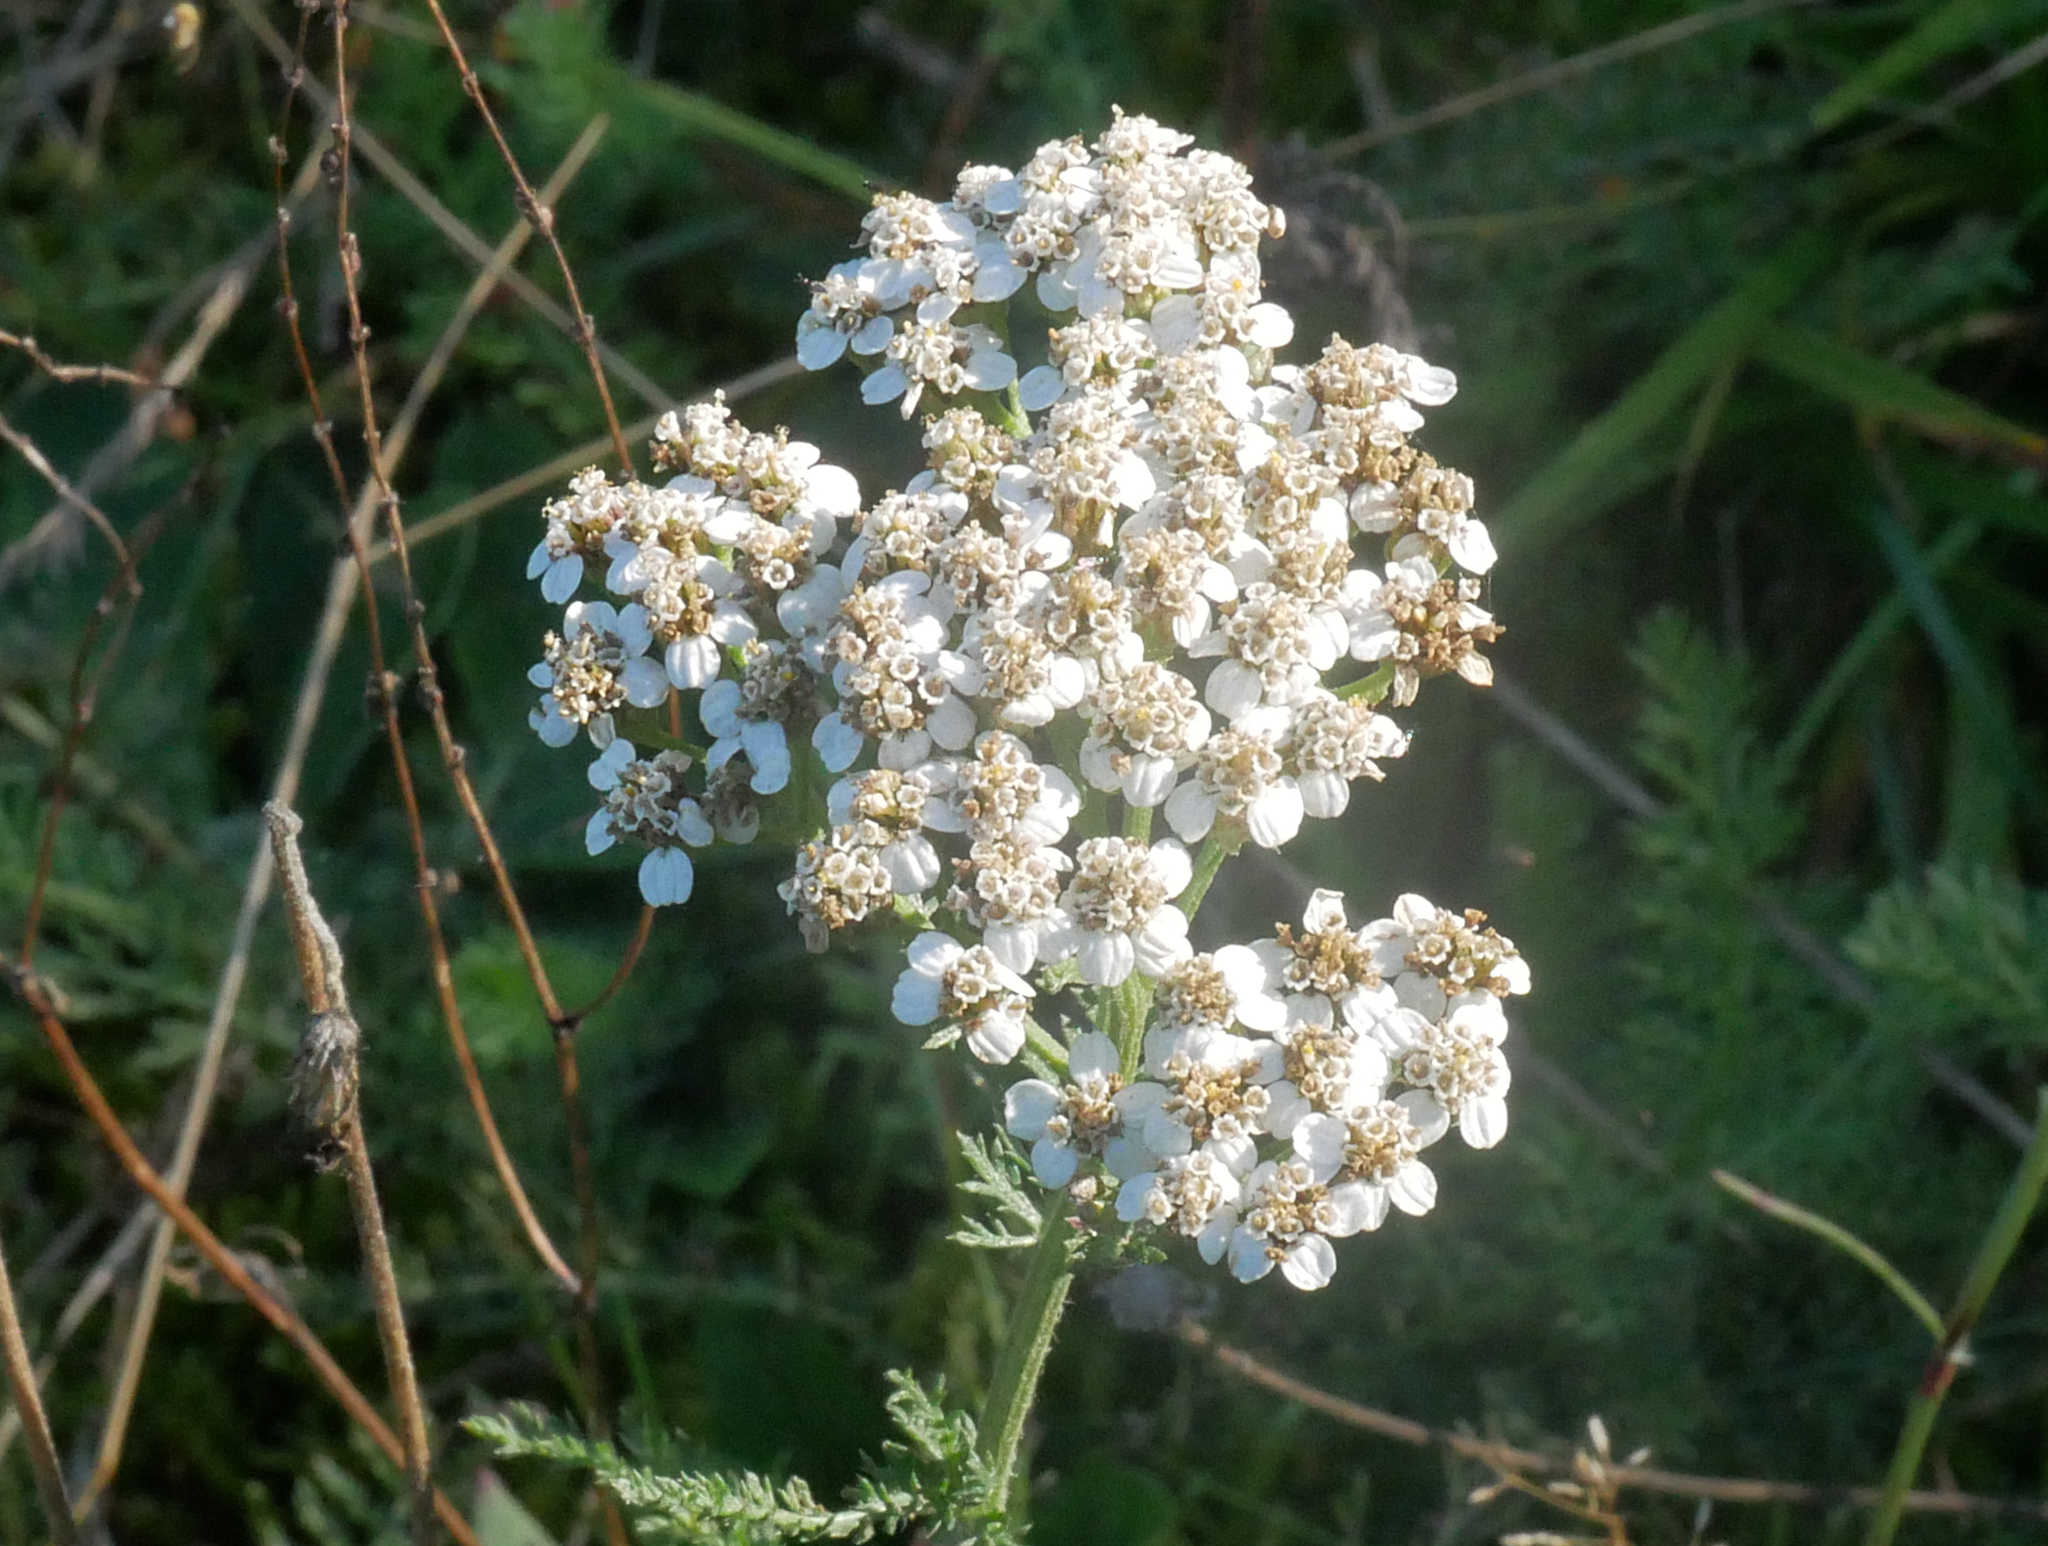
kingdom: Plantae
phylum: Tracheophyta
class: Magnoliopsida
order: Asterales
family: Asteraceae
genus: Achillea
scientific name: Achillea millefolium
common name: Yarrow
